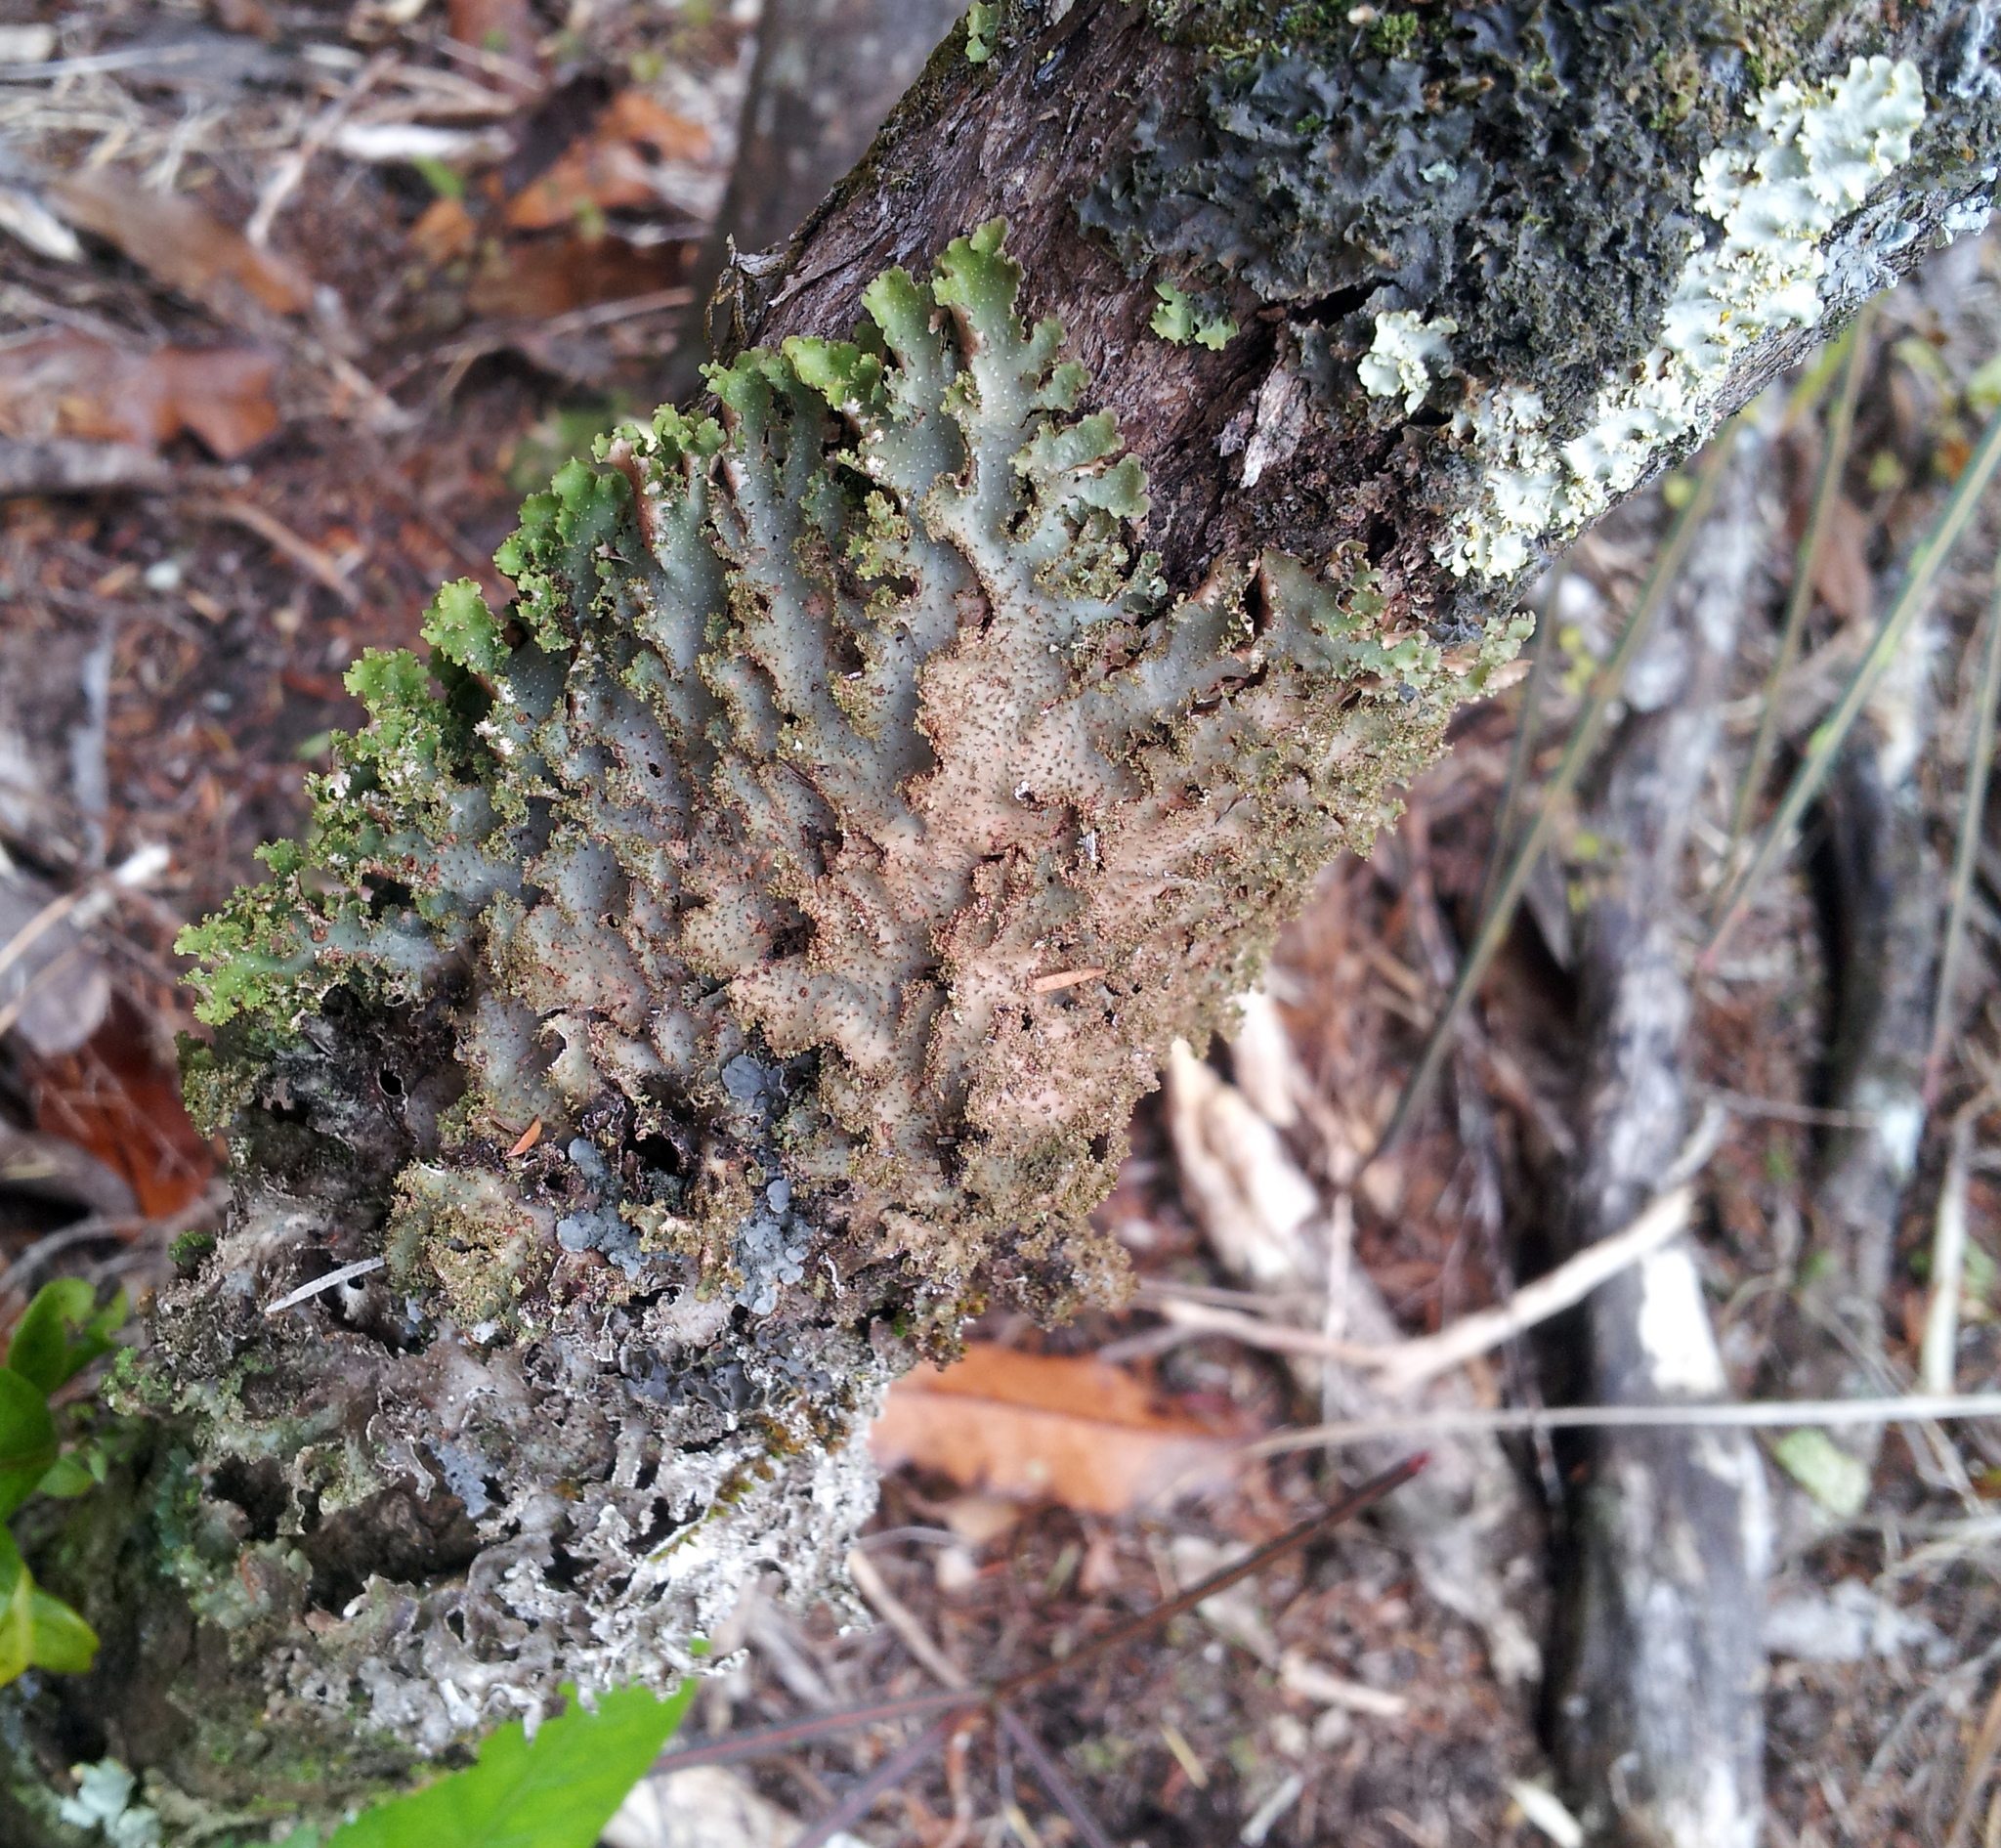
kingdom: Fungi
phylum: Ascomycota
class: Lecanoromycetes
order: Peltigerales
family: Lobariaceae
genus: Pseudocyphellaria
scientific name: Pseudocyphellaria wilkinsii
